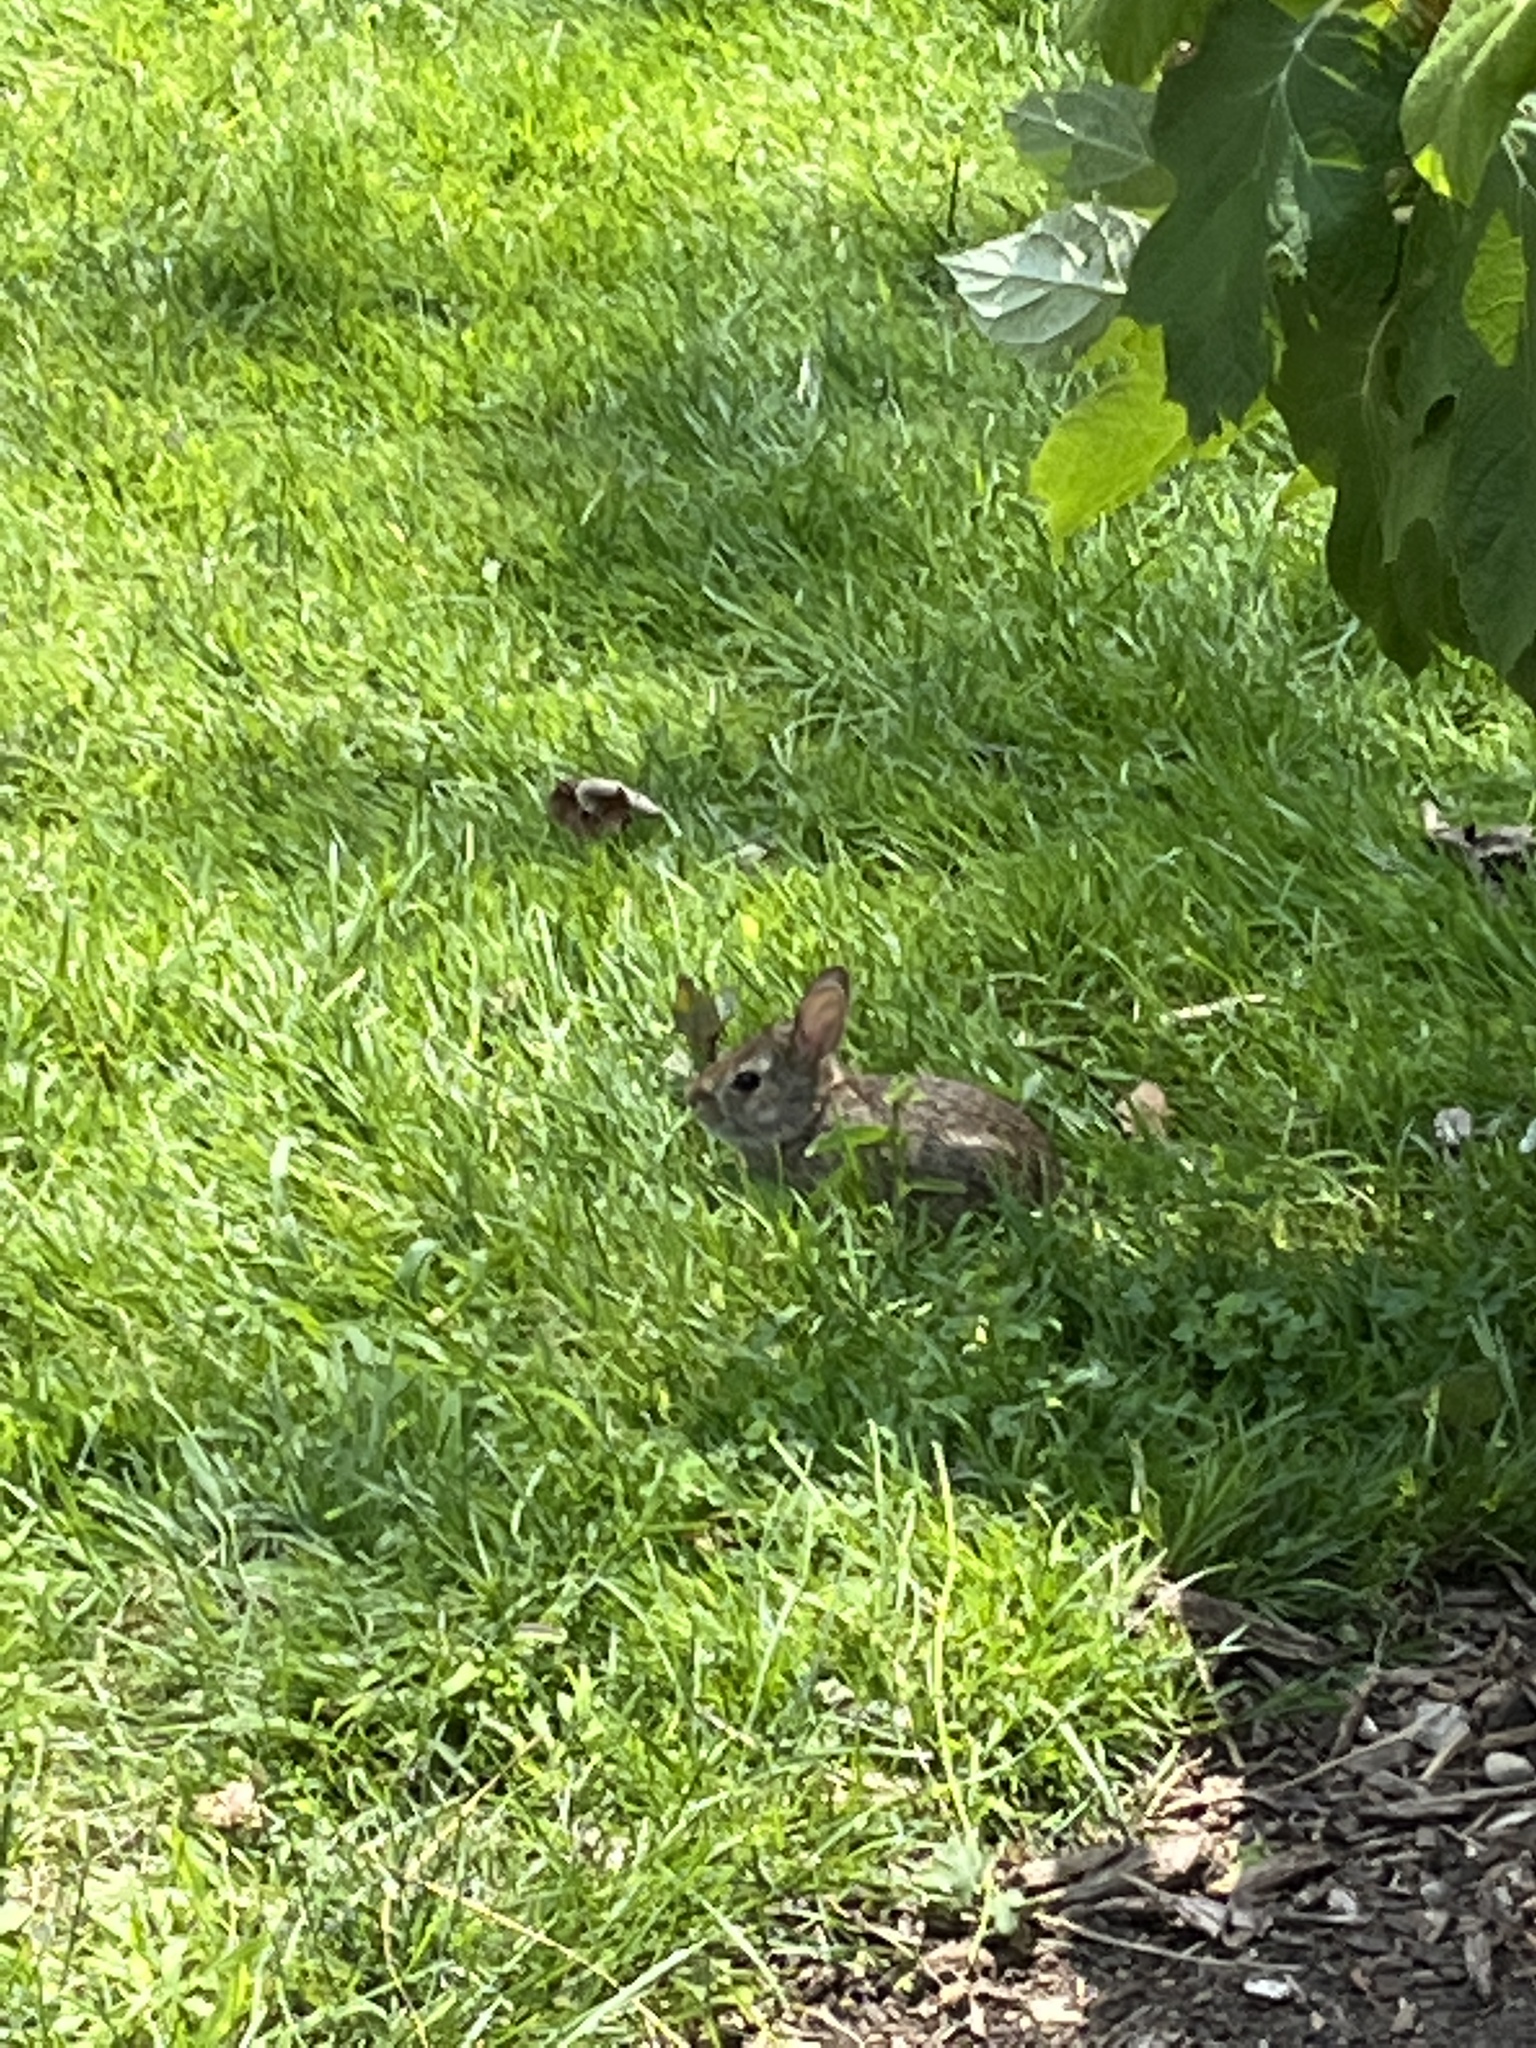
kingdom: Animalia
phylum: Chordata
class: Mammalia
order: Lagomorpha
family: Leporidae
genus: Sylvilagus
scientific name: Sylvilagus floridanus
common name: Eastern cottontail
